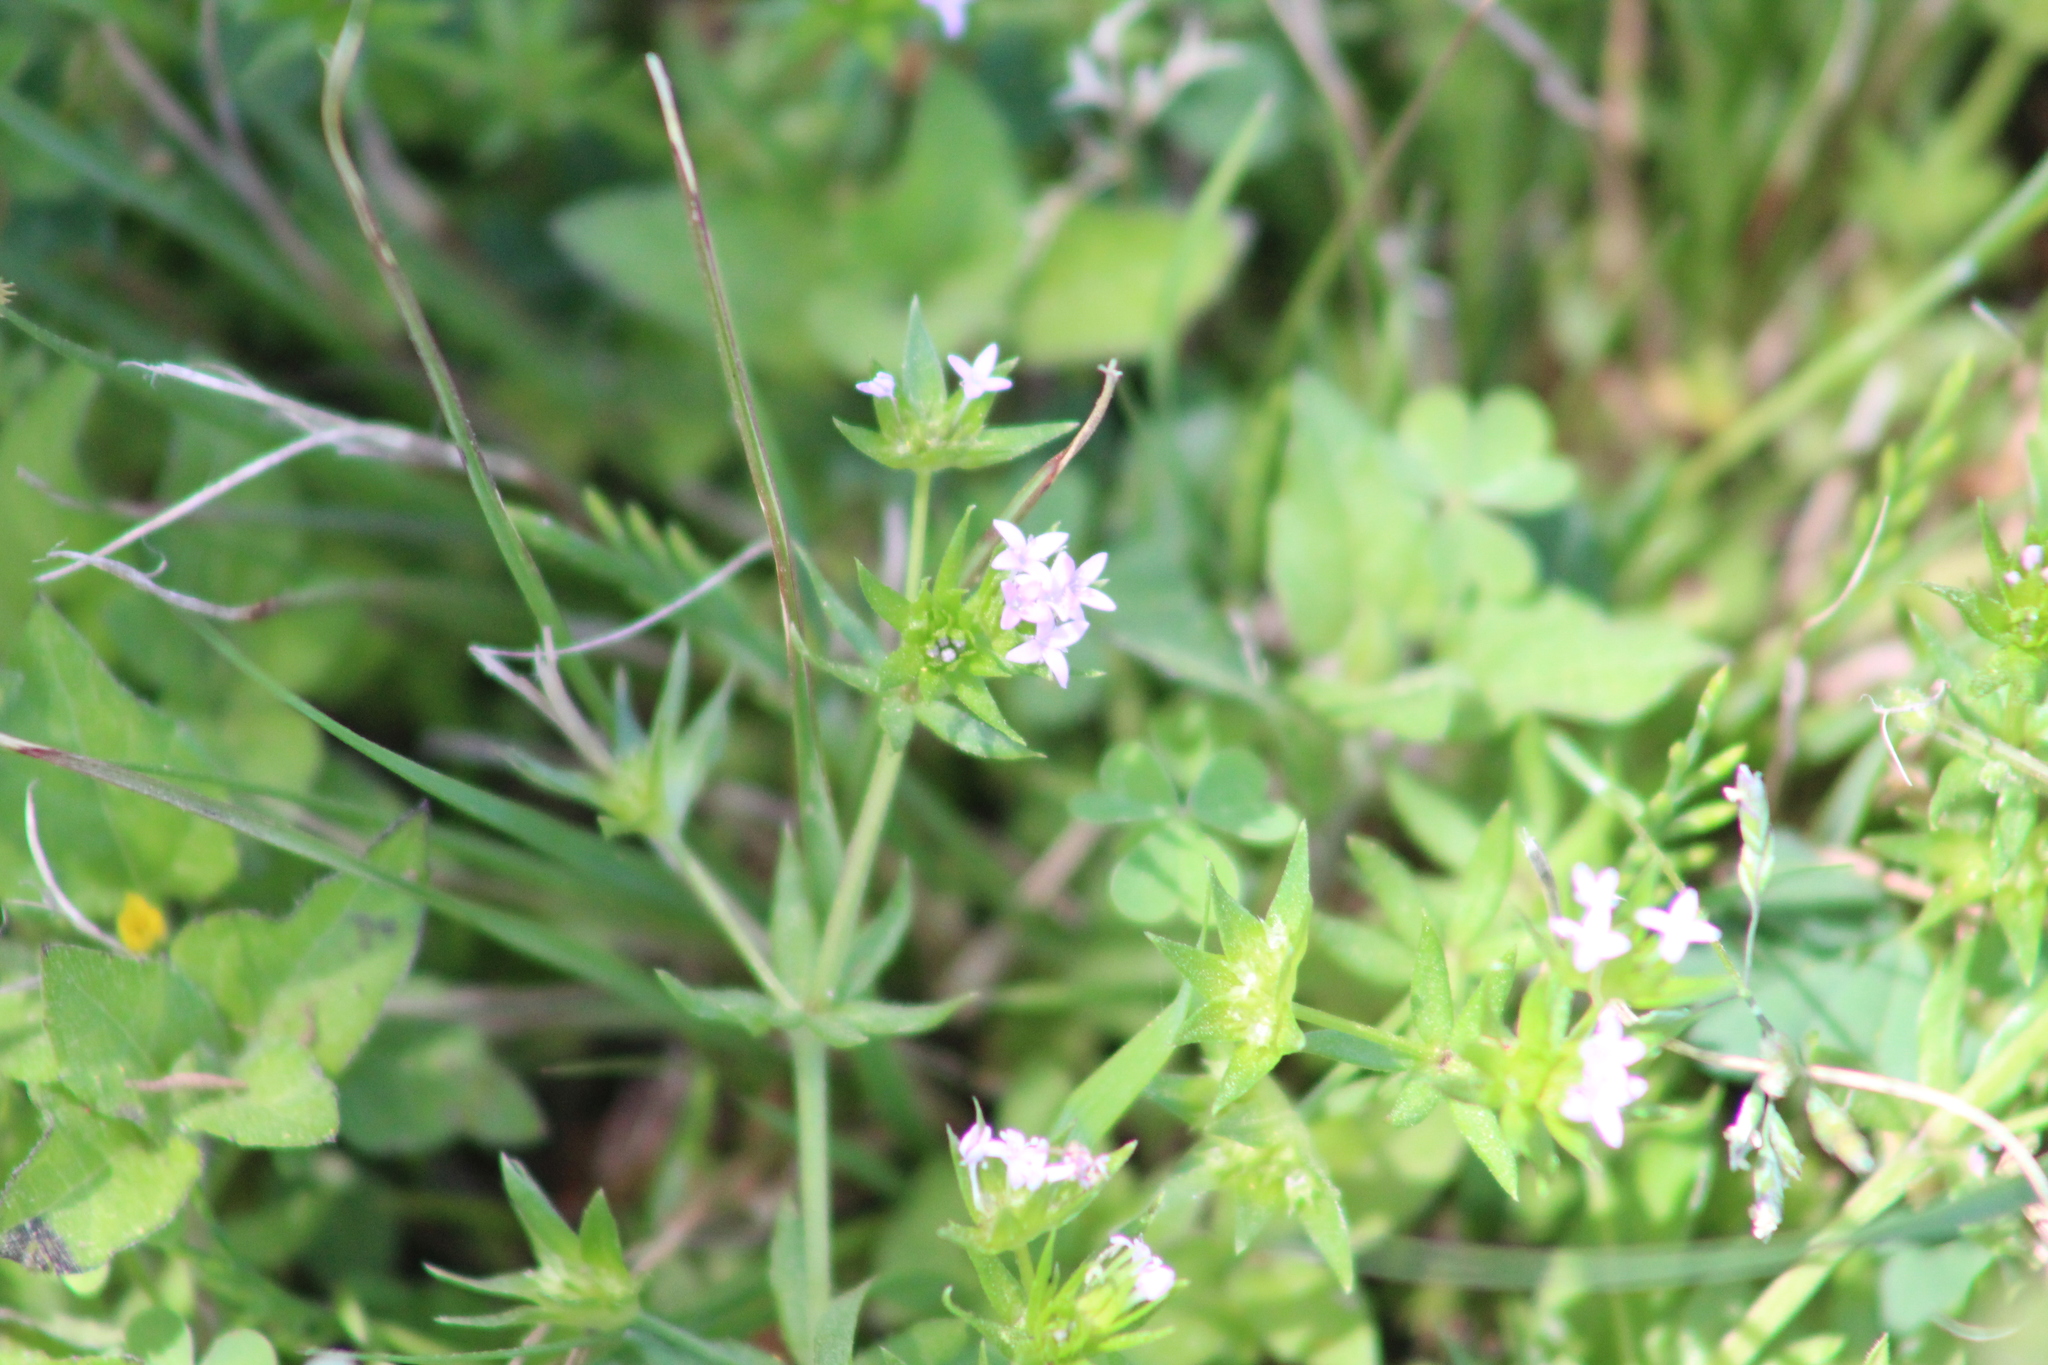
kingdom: Plantae
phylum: Tracheophyta
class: Magnoliopsida
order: Gentianales
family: Rubiaceae
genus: Sherardia
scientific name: Sherardia arvensis
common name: Field madder
